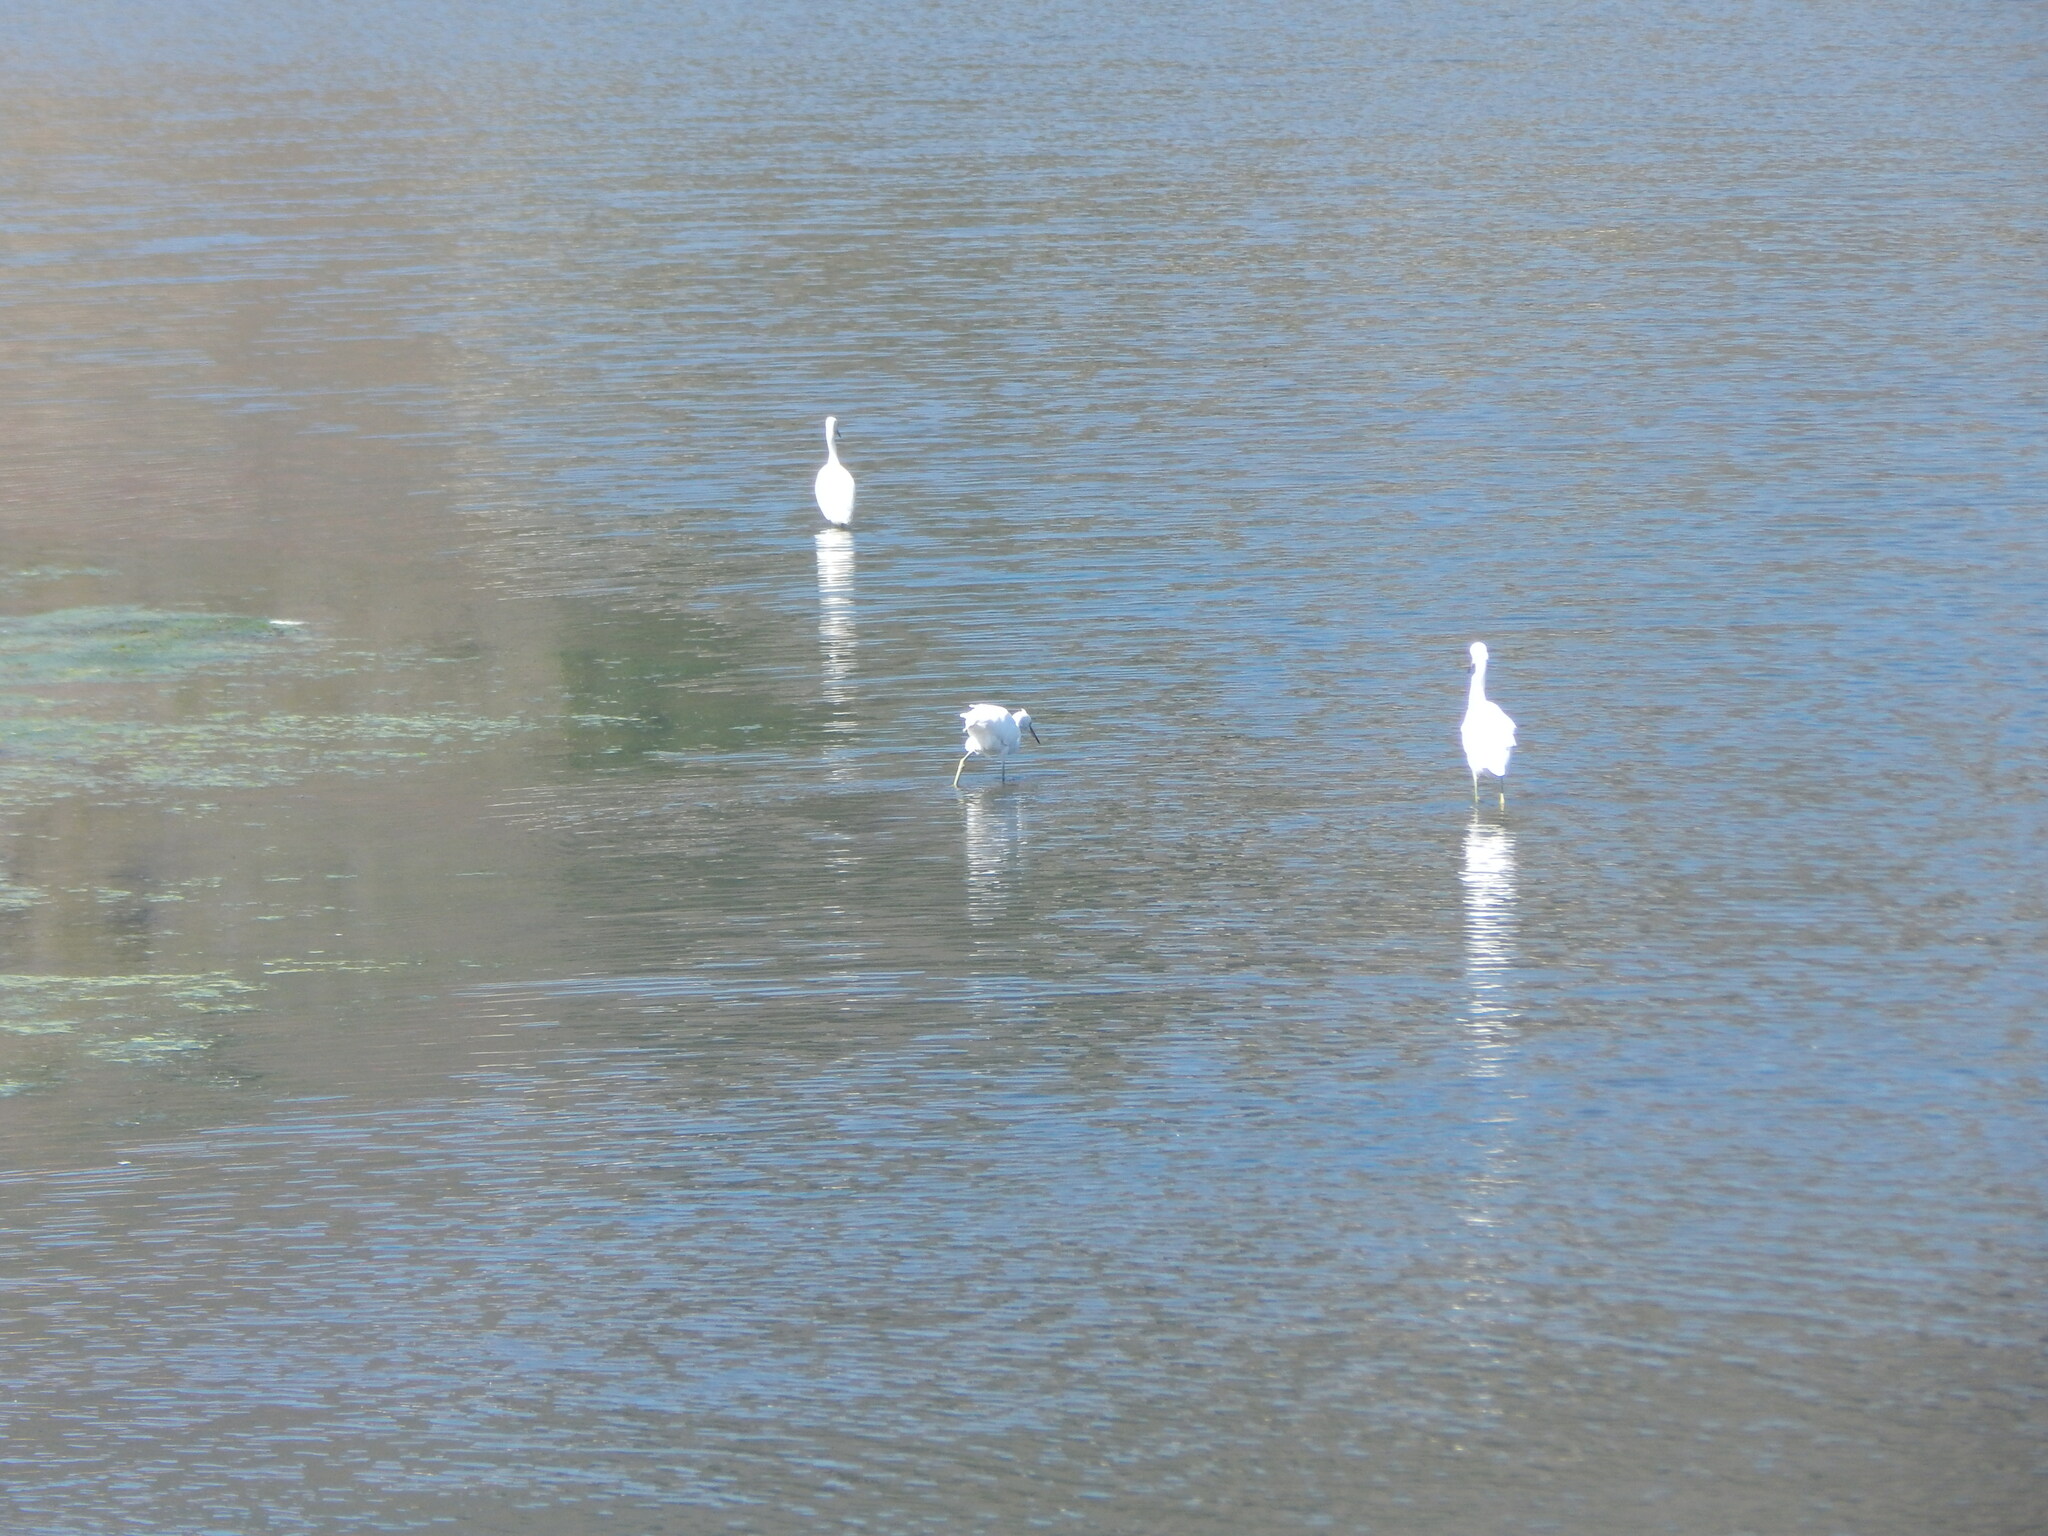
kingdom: Animalia
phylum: Chordata
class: Aves
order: Pelecaniformes
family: Ardeidae
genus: Egretta
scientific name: Egretta thula
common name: Snowy egret
